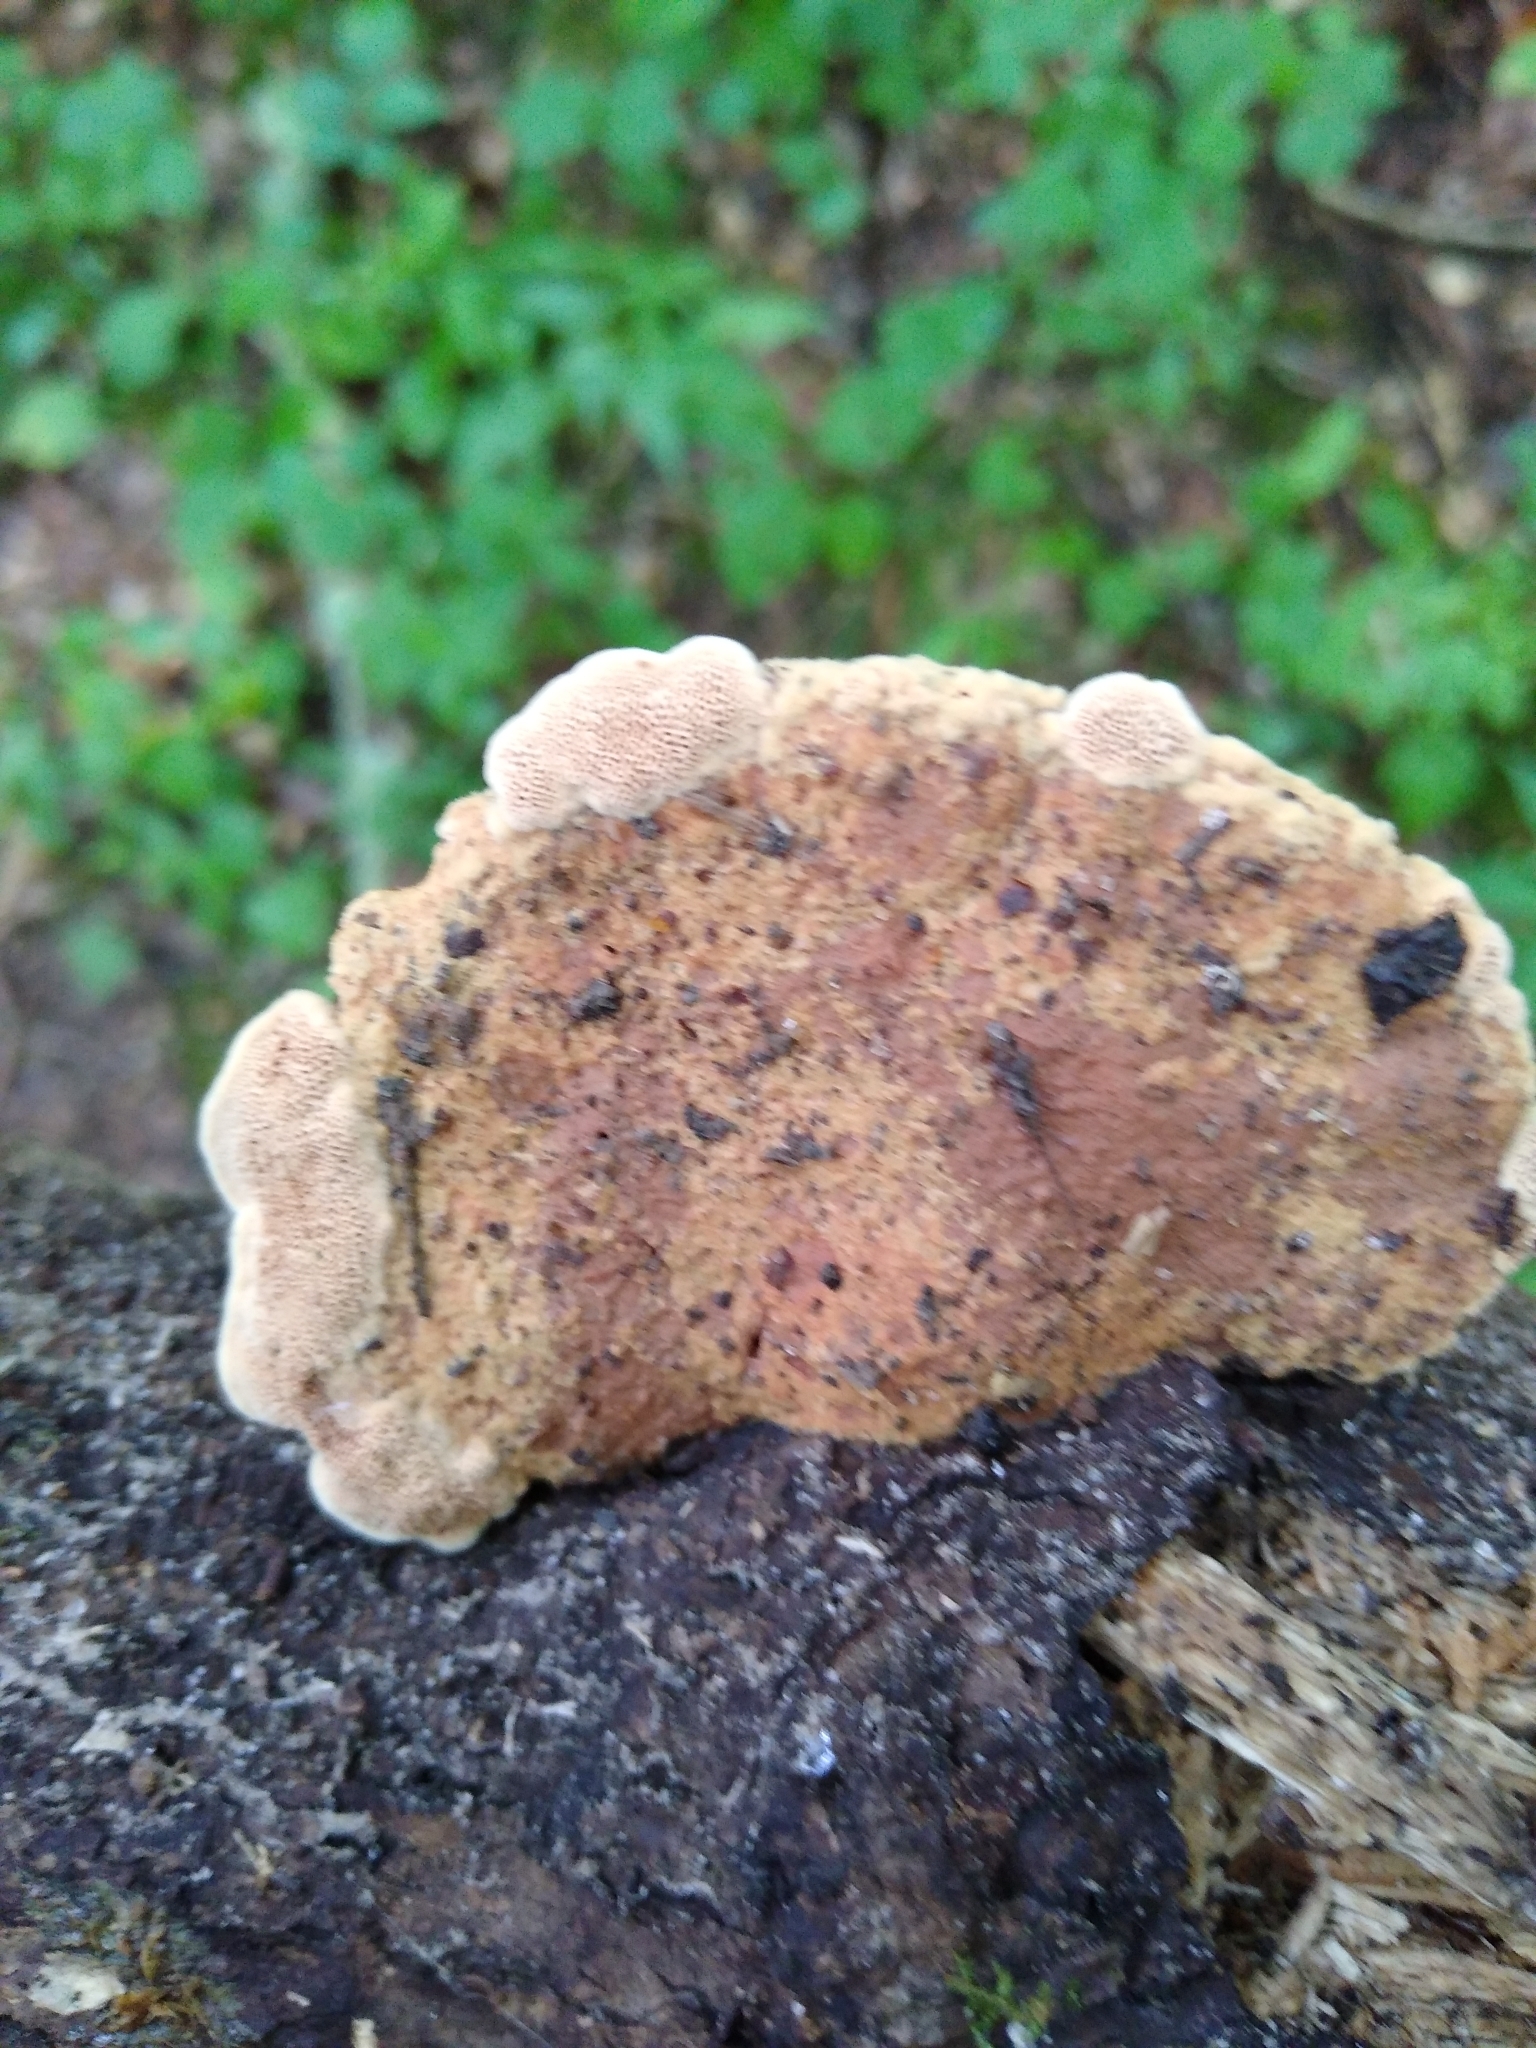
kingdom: Fungi
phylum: Basidiomycota
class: Agaricomycetes
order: Polyporales
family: Phanerochaetaceae
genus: Hapalopilus
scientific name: Hapalopilus rutilans
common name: Tender nesting polypore
